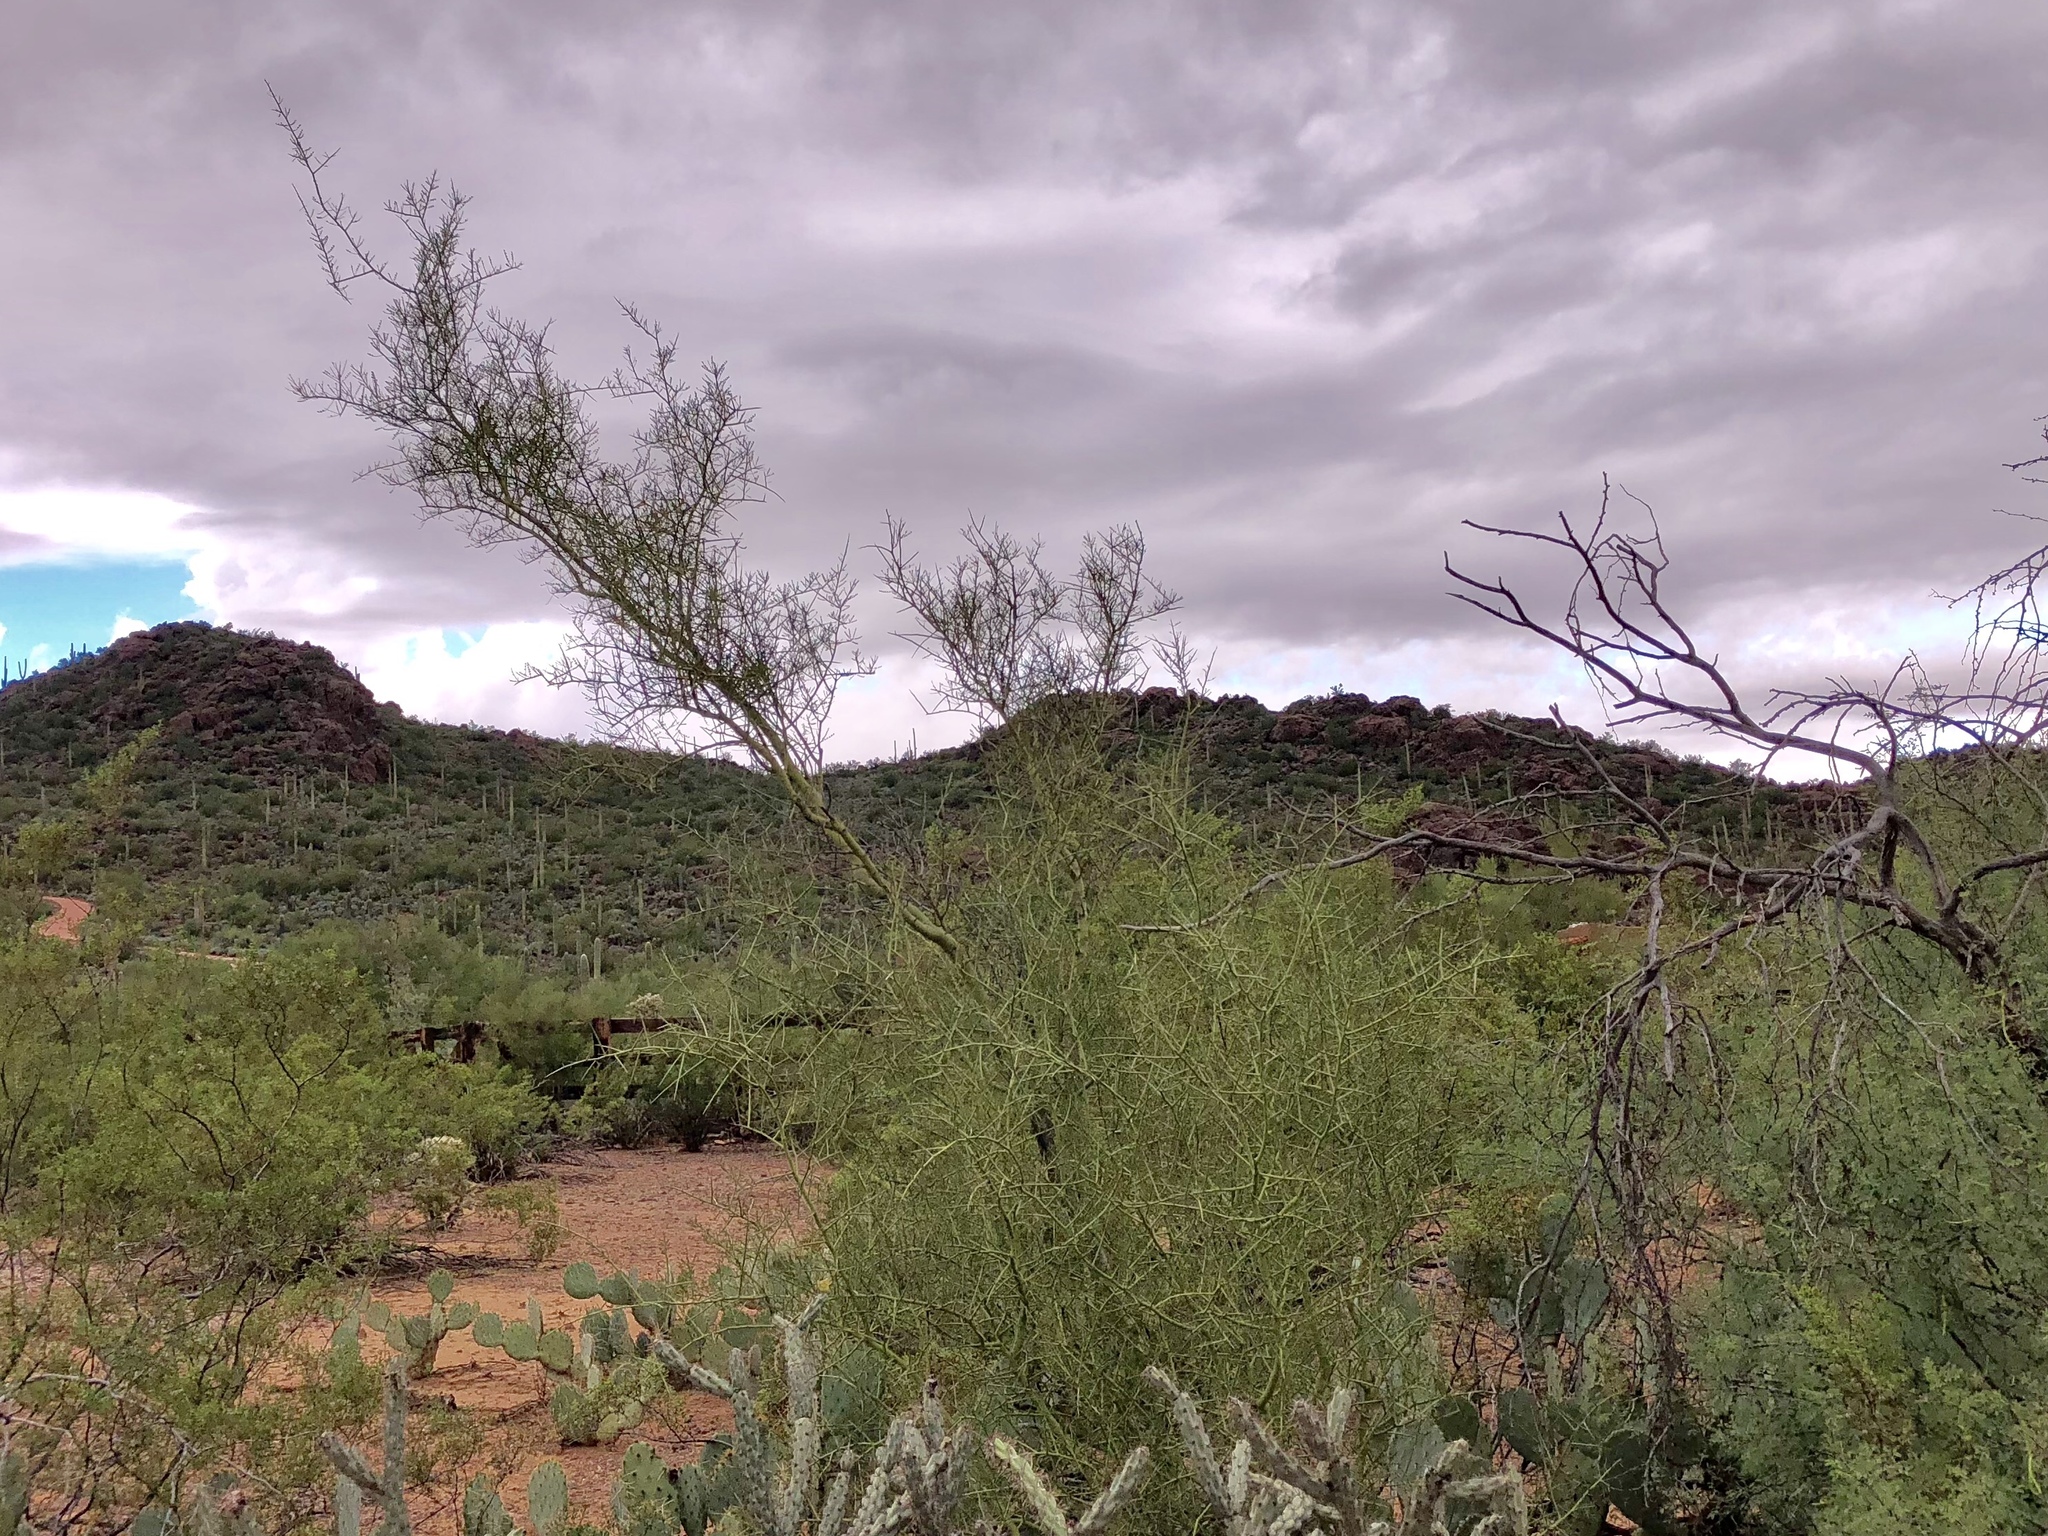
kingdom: Plantae
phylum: Tracheophyta
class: Magnoliopsida
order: Fabales
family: Fabaceae
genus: Parkinsonia
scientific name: Parkinsonia microphylla
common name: Yellow paloverde
